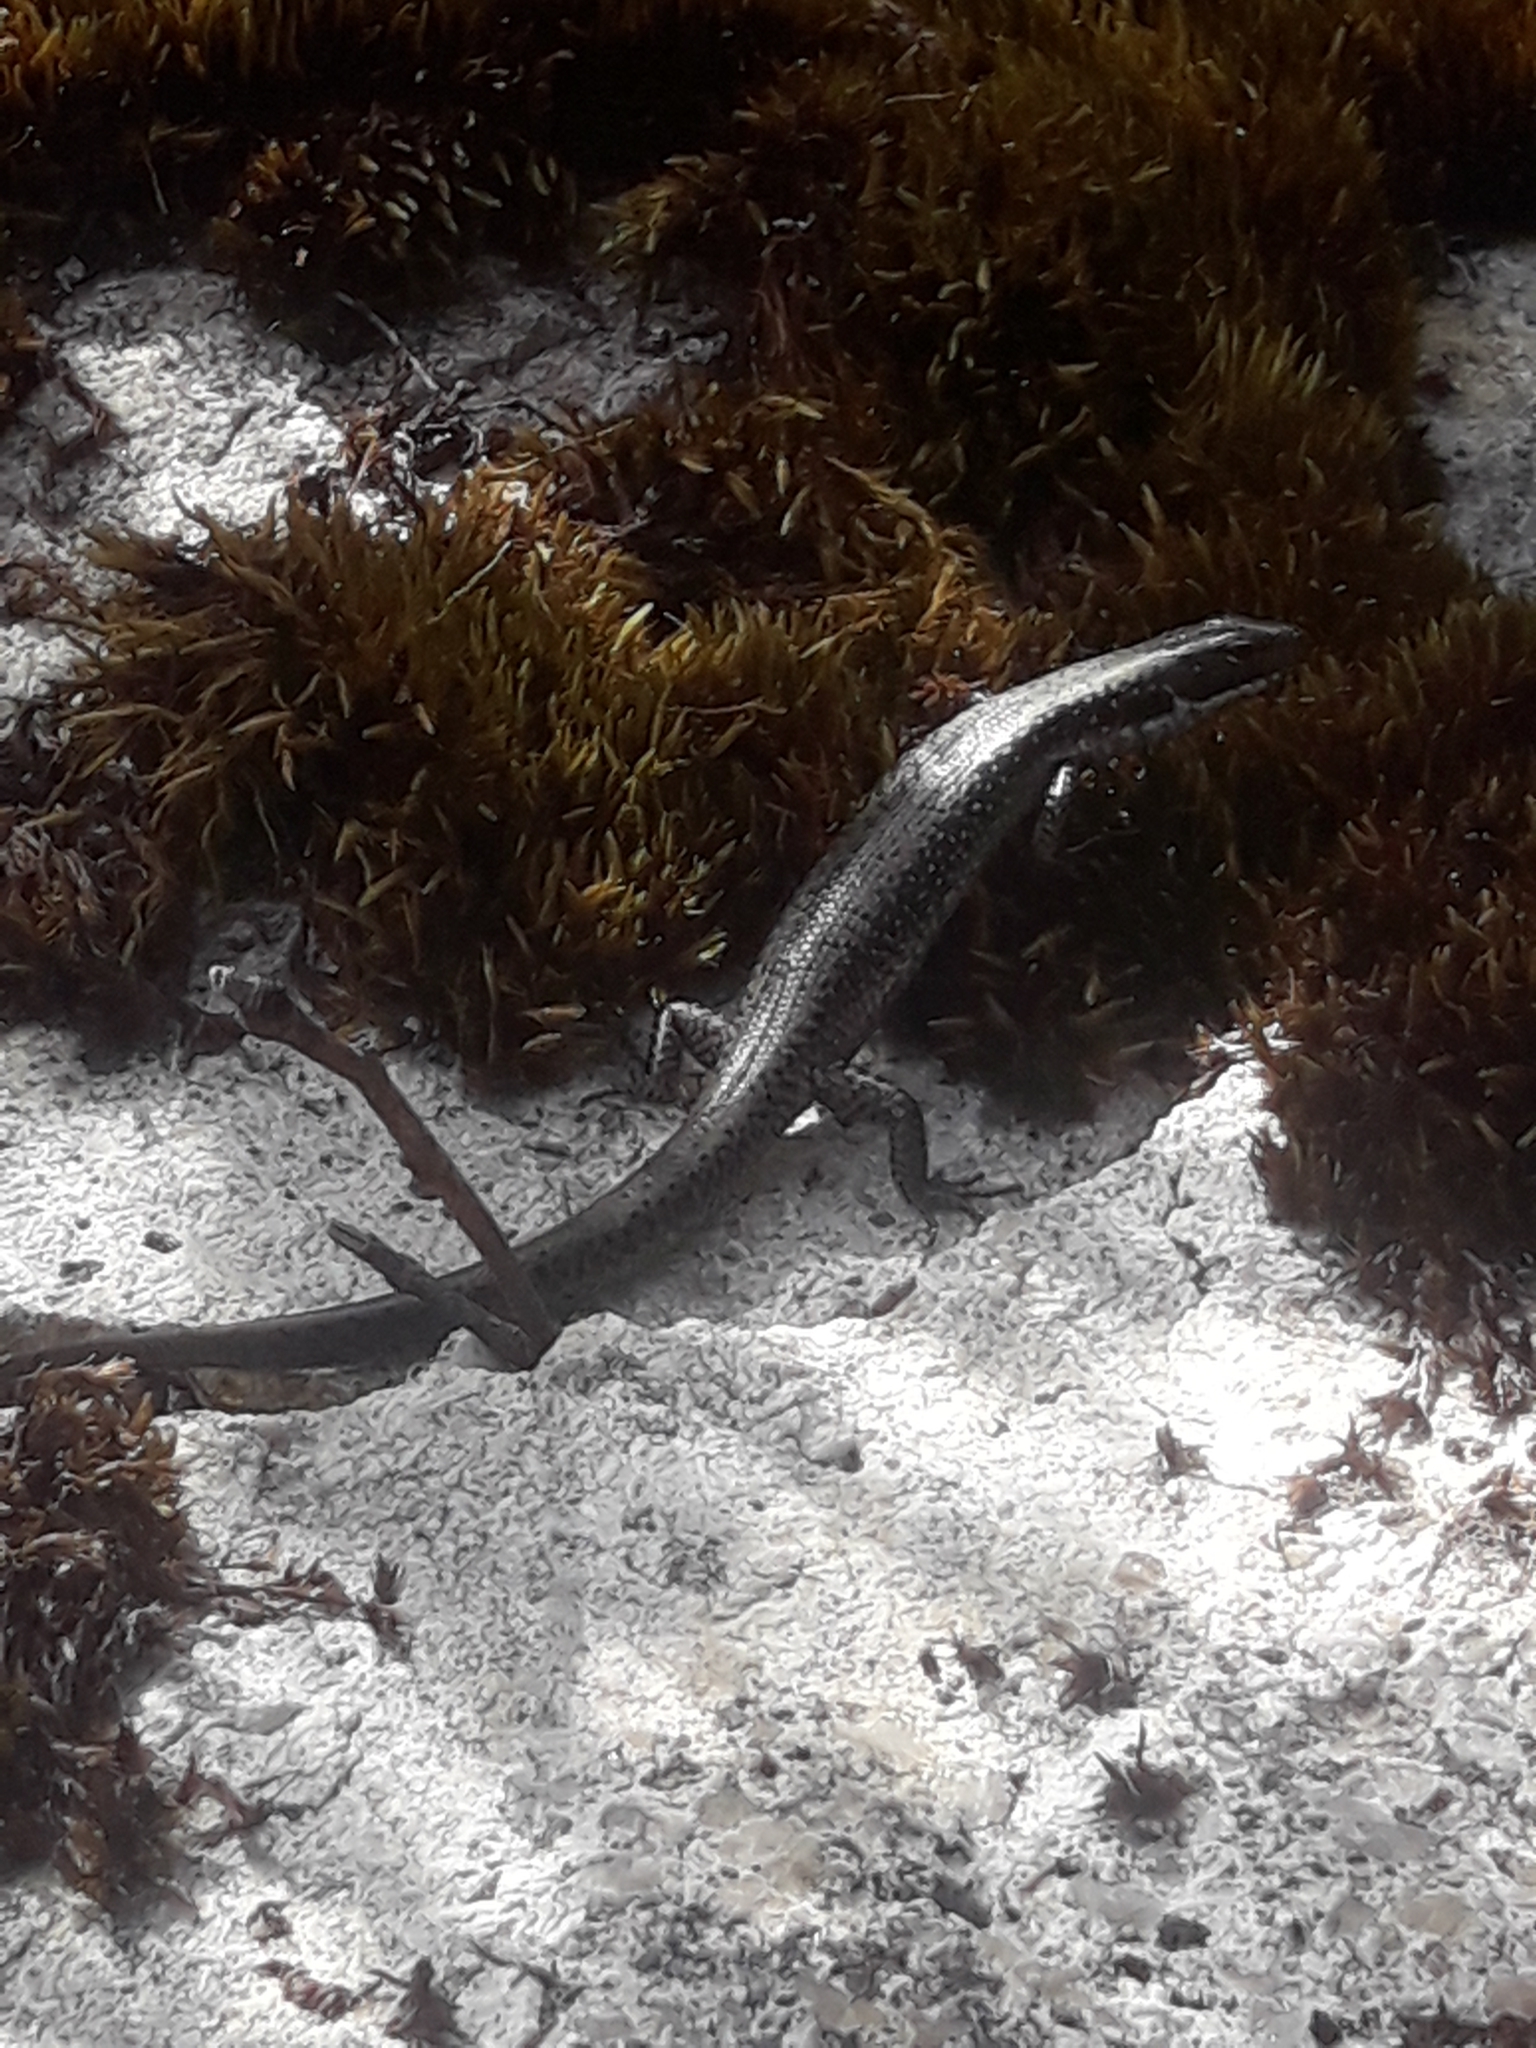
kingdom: Animalia
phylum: Chordata
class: Squamata
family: Scincidae
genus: Eulamprus
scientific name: Eulamprus tympanum
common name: Cool-temperate water-skink
